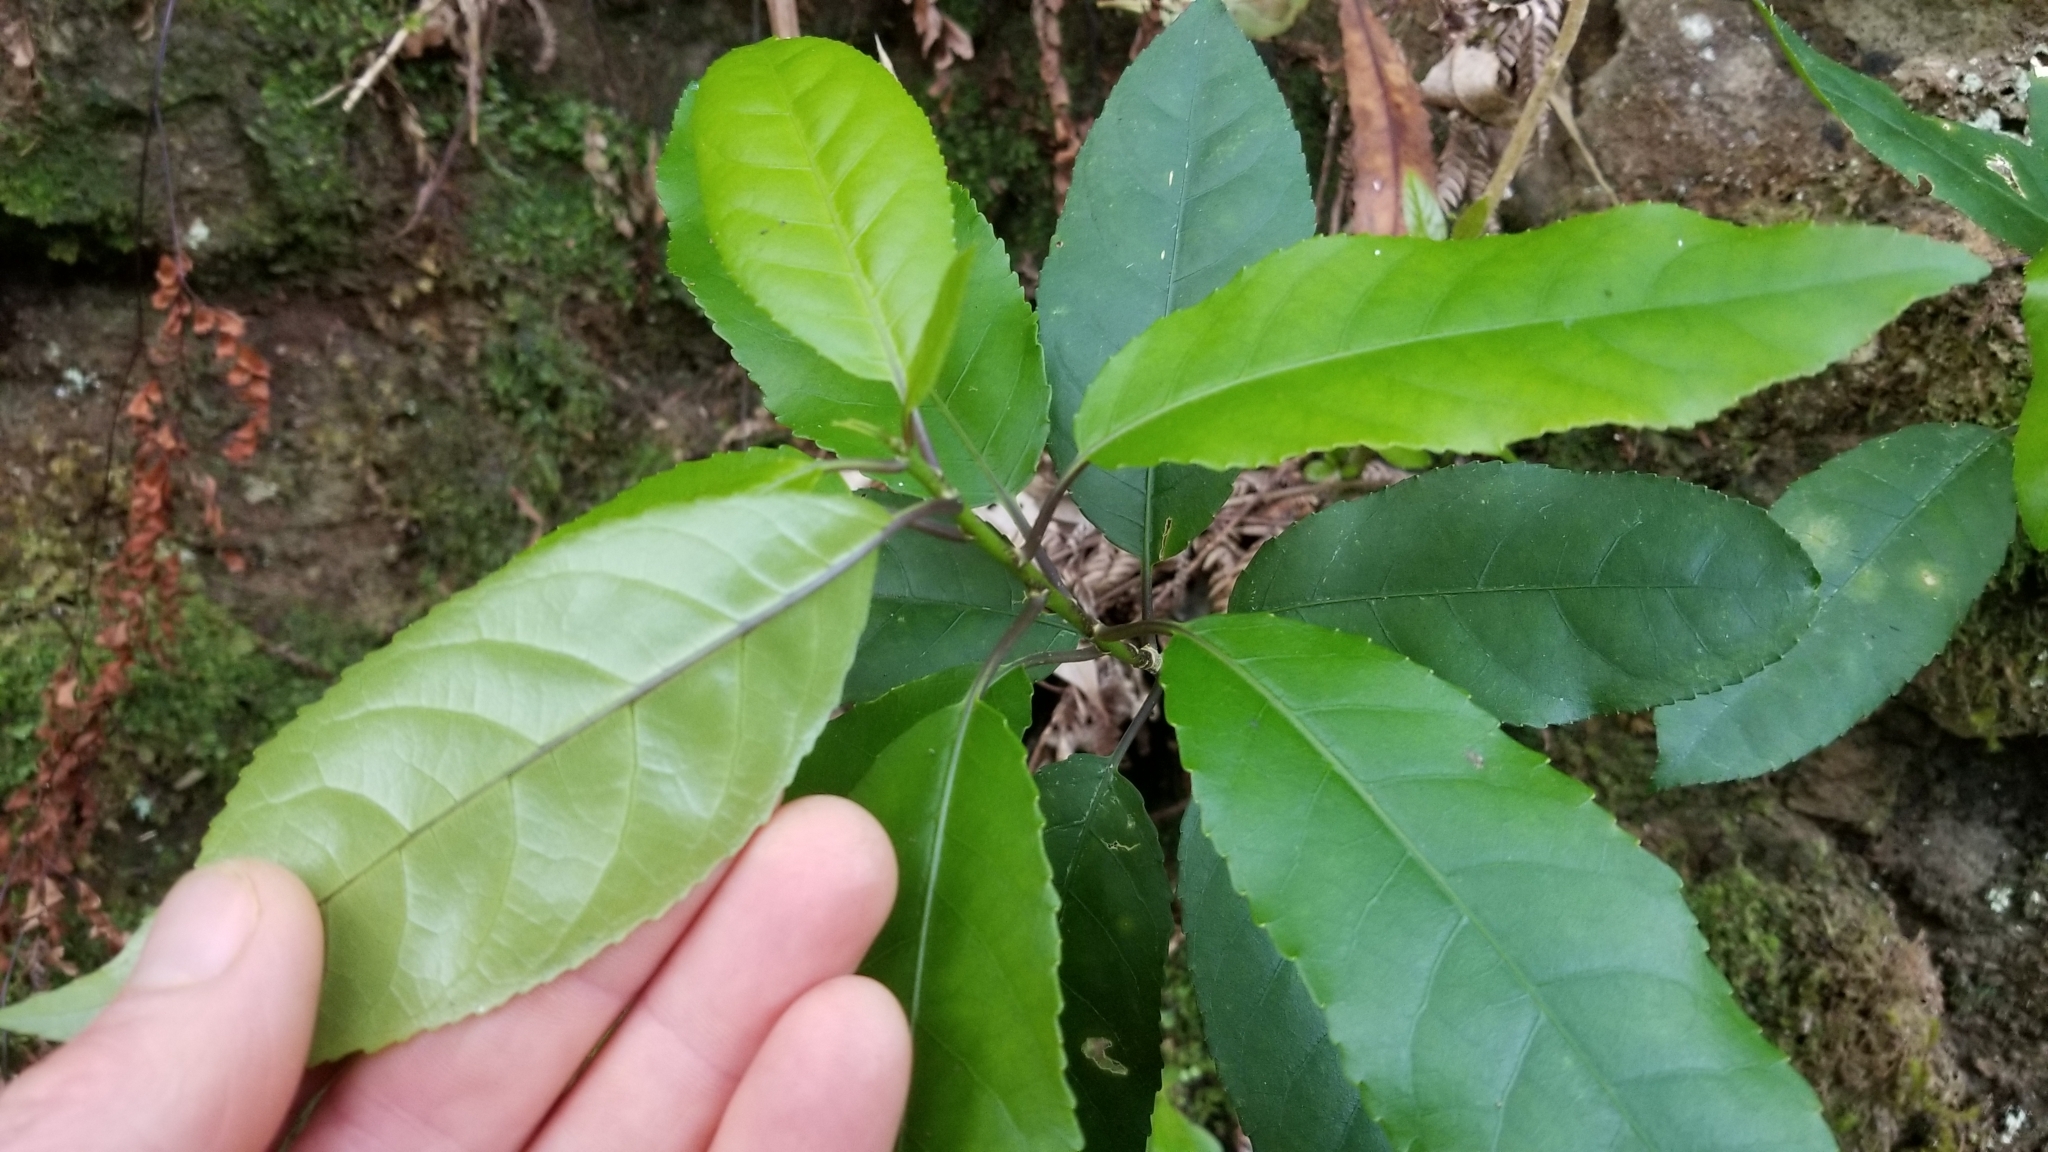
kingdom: Plantae
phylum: Tracheophyta
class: Magnoliopsida
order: Malpighiales
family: Violaceae
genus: Melicytus
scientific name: Melicytus ramiflorus
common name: Mahoe
